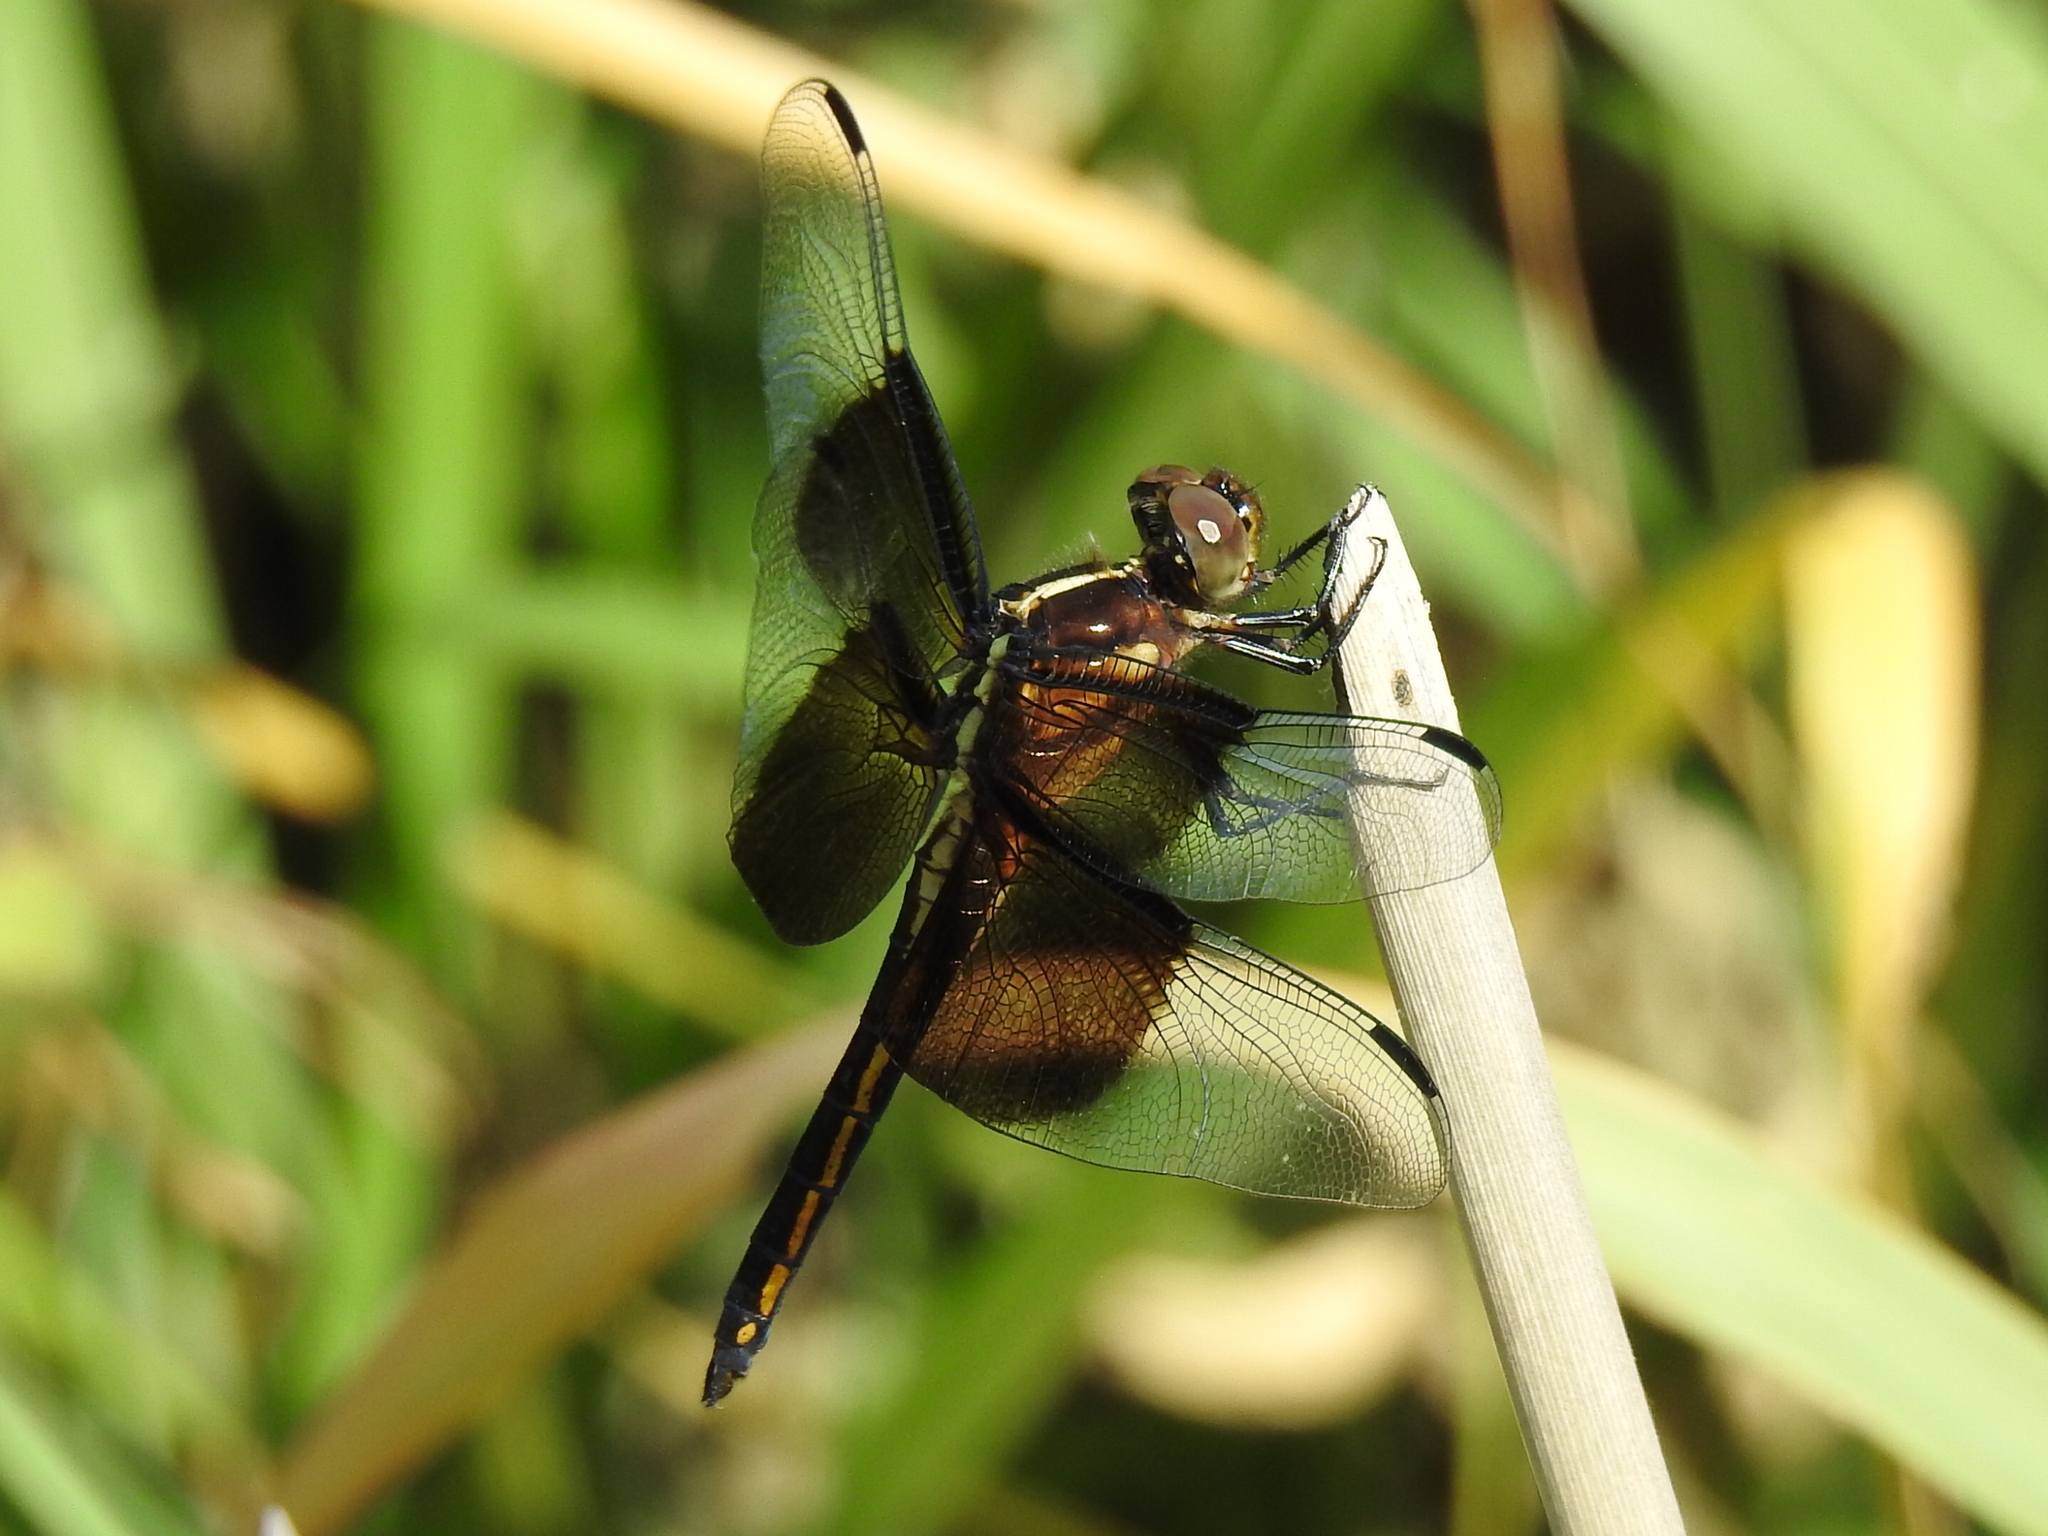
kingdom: Animalia
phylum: Arthropoda
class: Insecta
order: Odonata
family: Libellulidae
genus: Libellula
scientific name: Libellula luctuosa
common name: Widow skimmer
